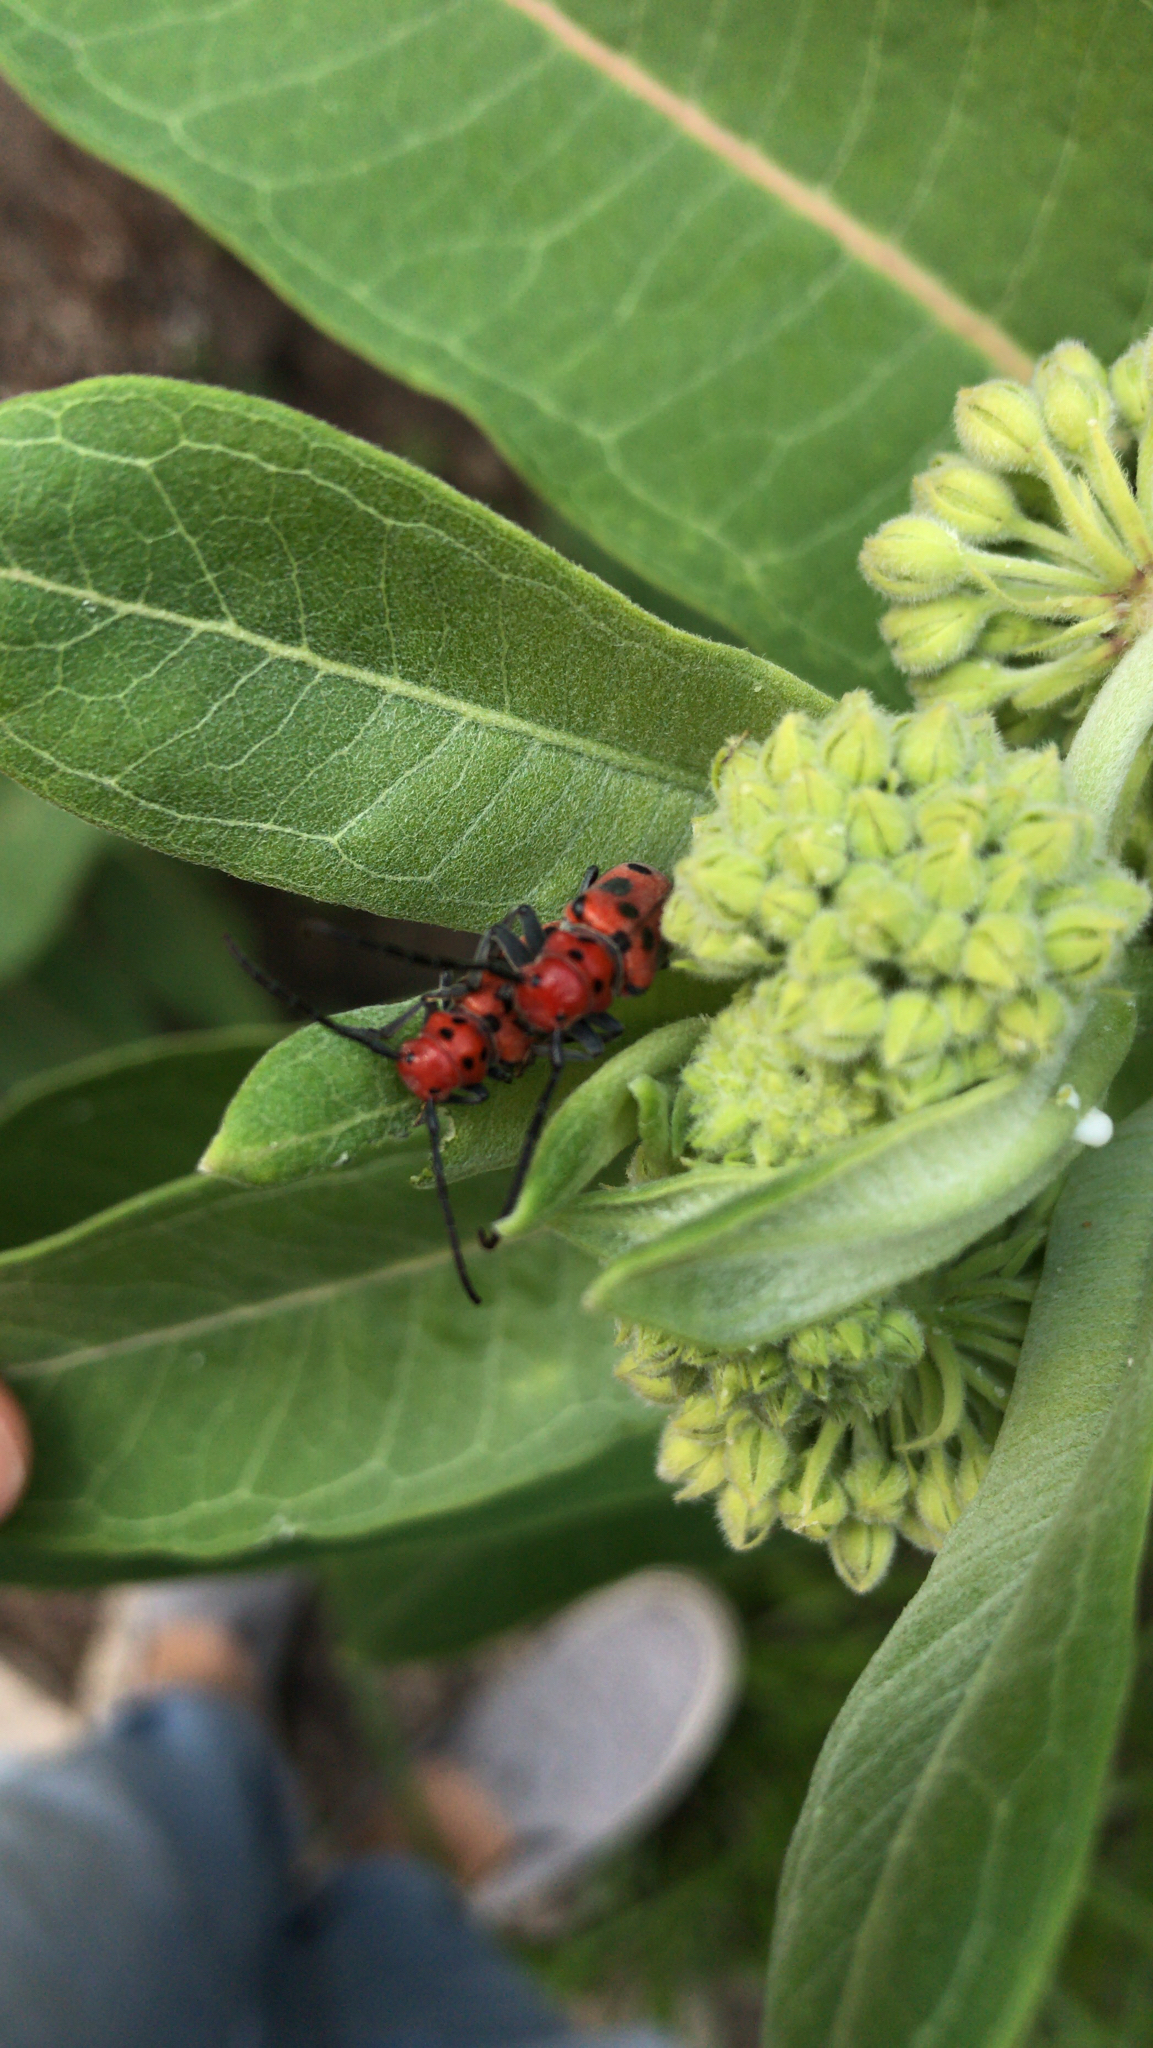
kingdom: Animalia
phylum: Arthropoda
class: Insecta
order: Coleoptera
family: Cerambycidae
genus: Tetraopes
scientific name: Tetraopes tetrophthalmus
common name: Red milkweed beetle
